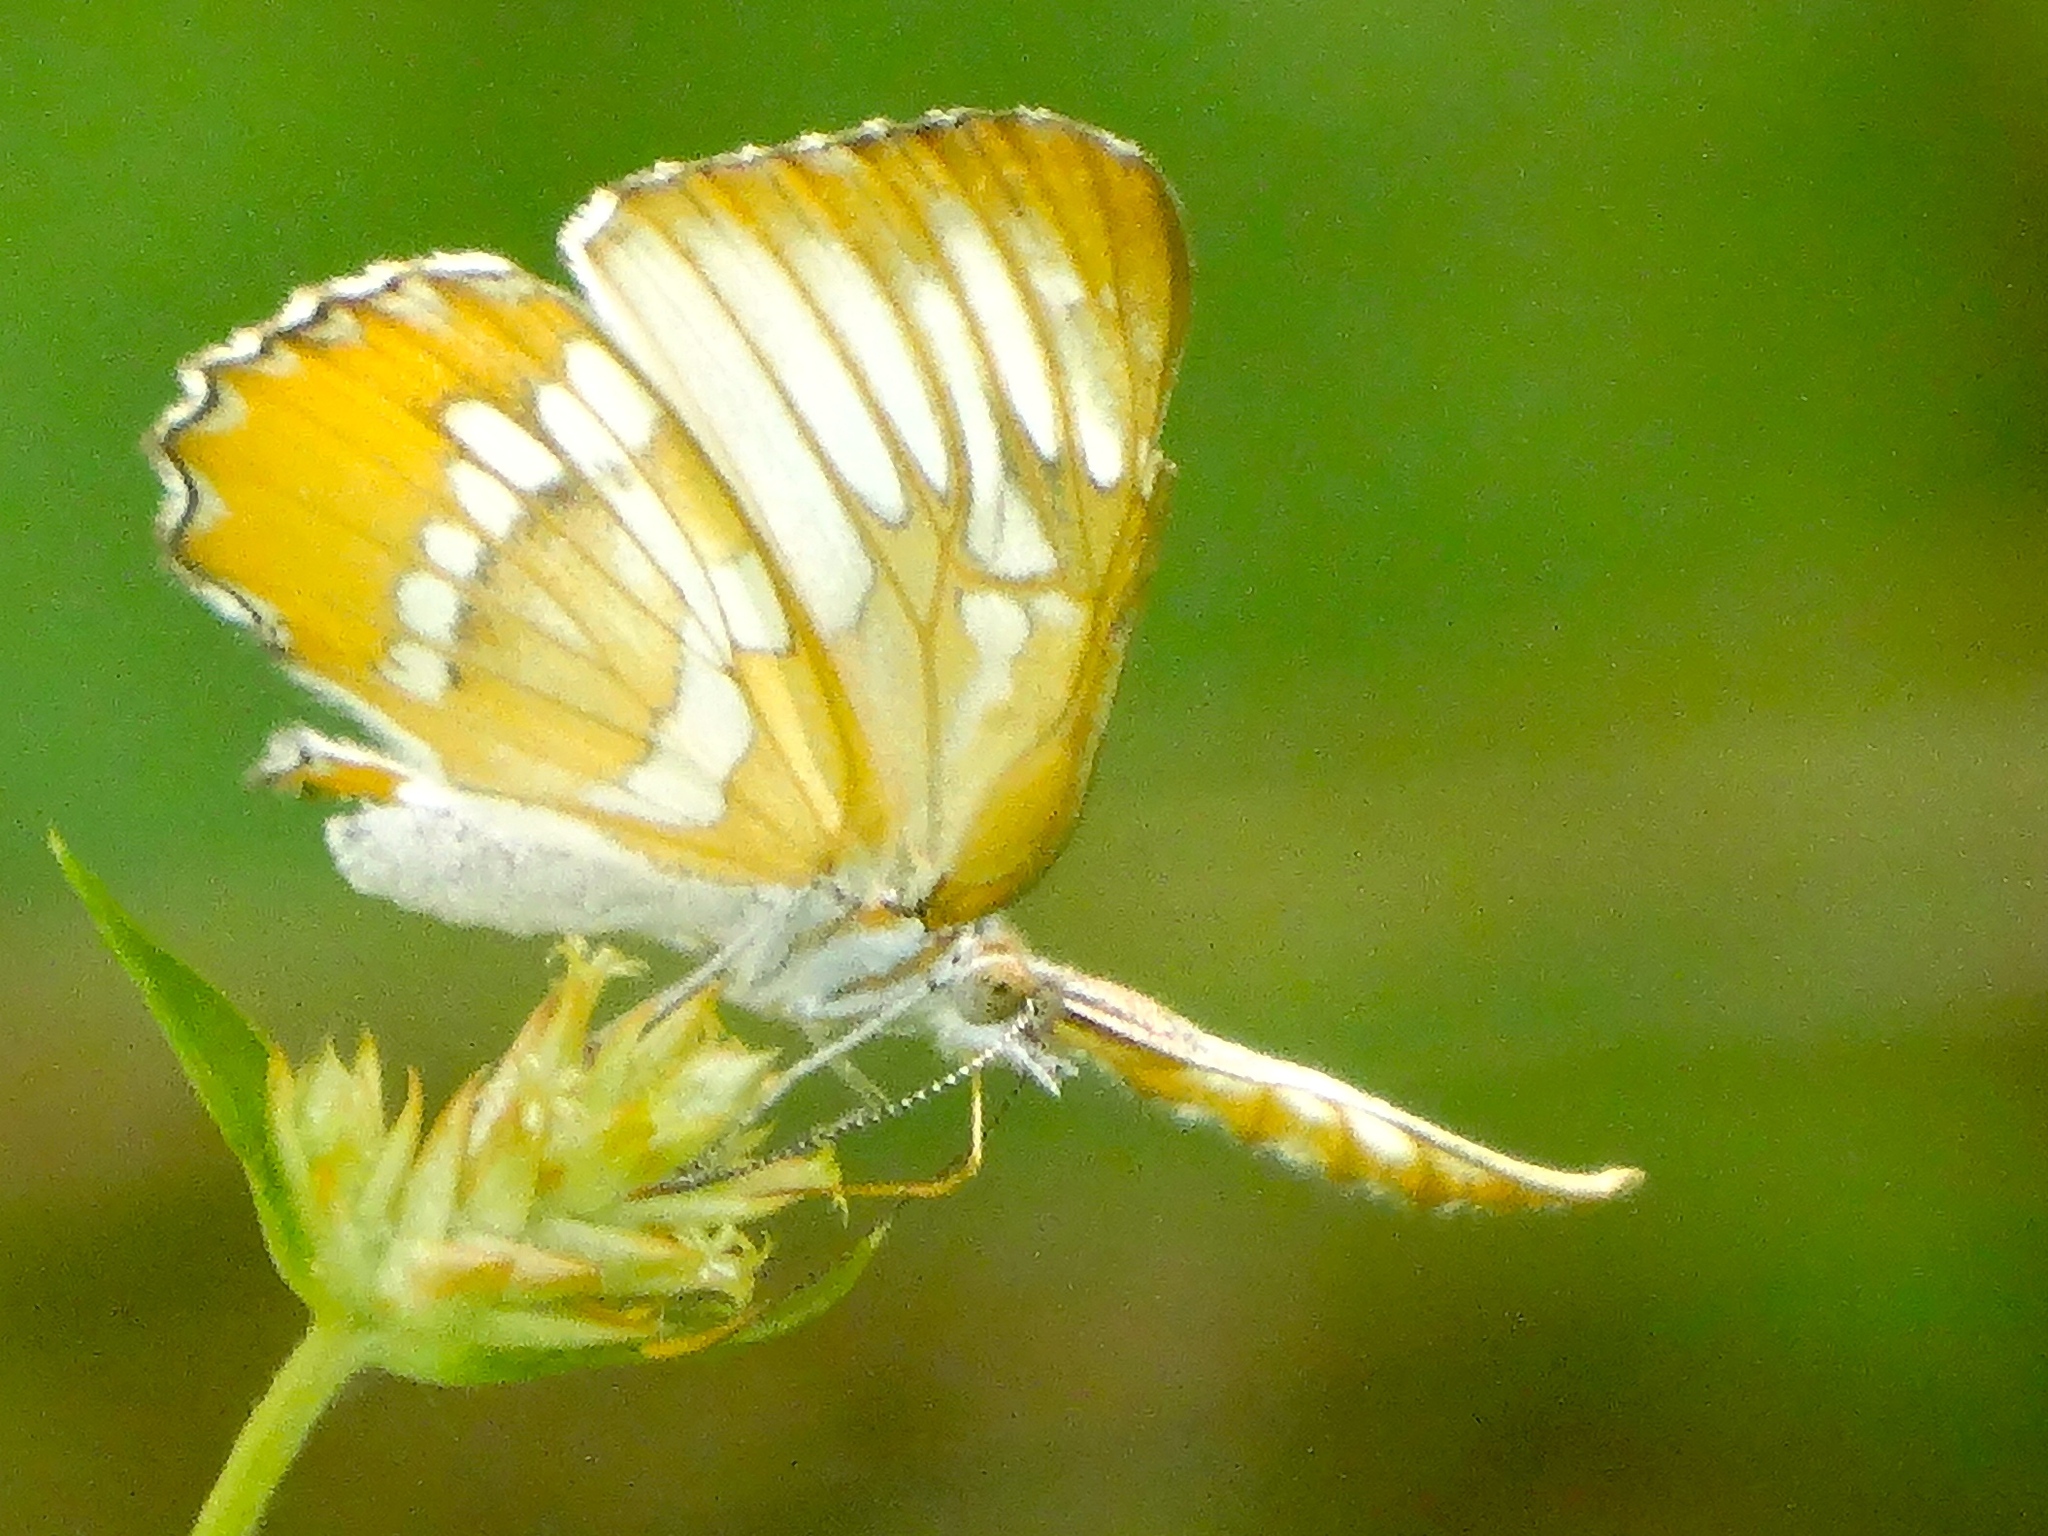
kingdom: Animalia
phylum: Arthropoda
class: Insecta
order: Lepidoptera
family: Nymphalidae
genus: Mestra
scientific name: Mestra amymone
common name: Common mestra
